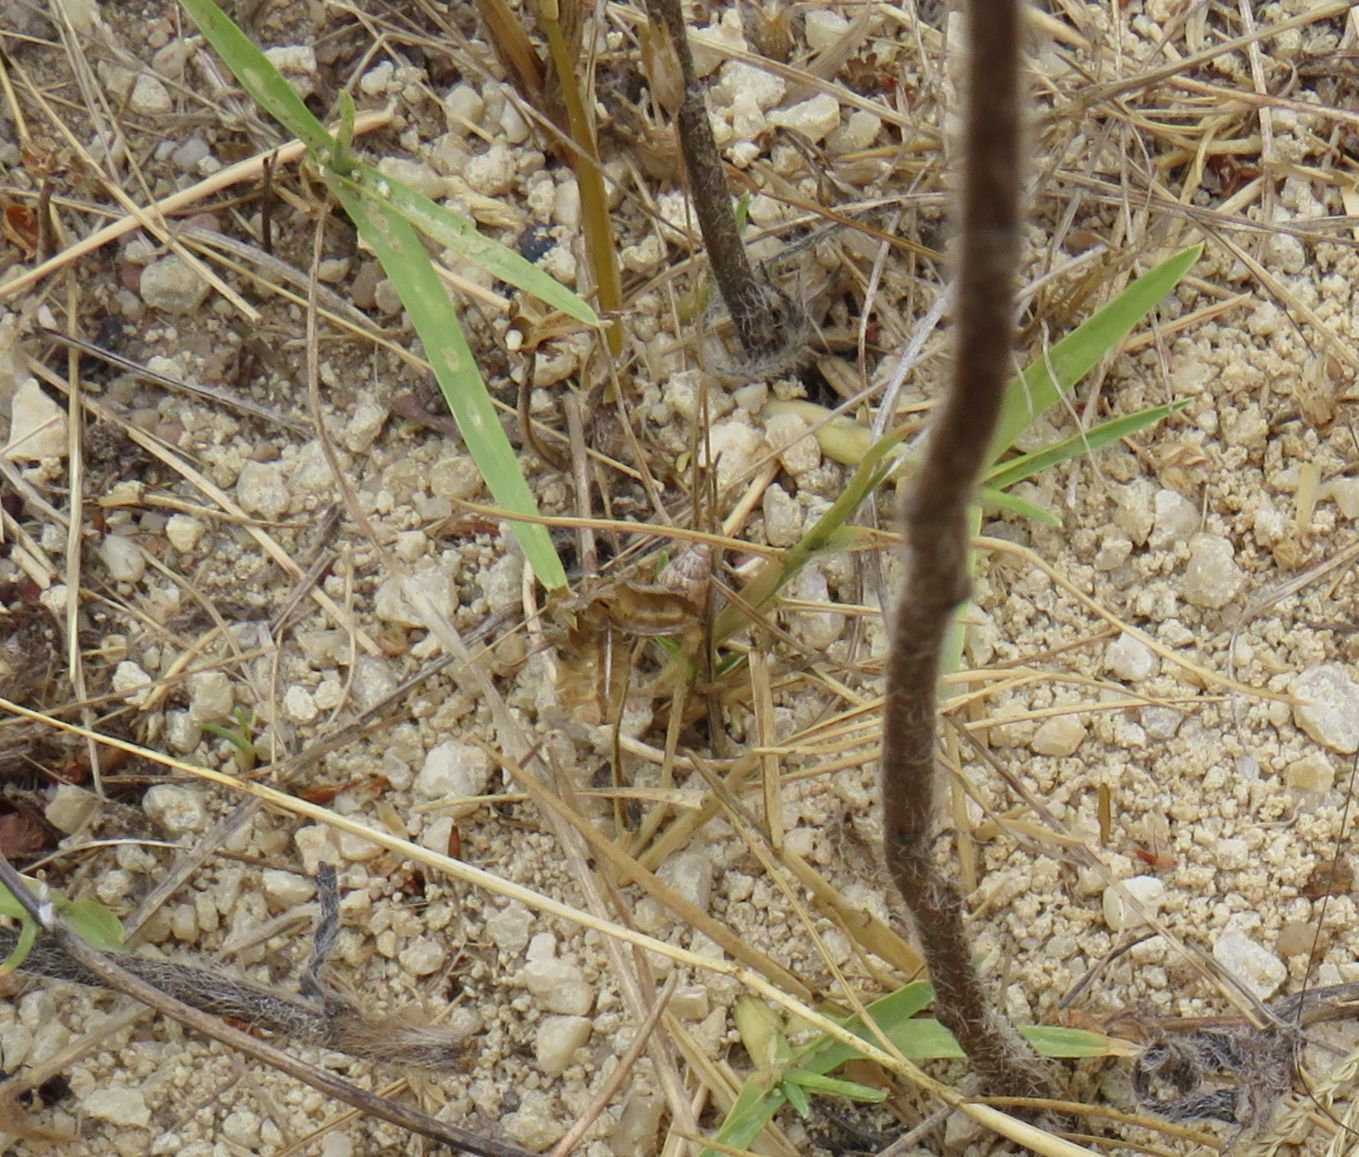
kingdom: Animalia
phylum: Mollusca
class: Gastropoda
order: Stylommatophora
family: Geomitridae
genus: Cochlicella
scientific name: Cochlicella barbara
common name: Potbellied helicellid
